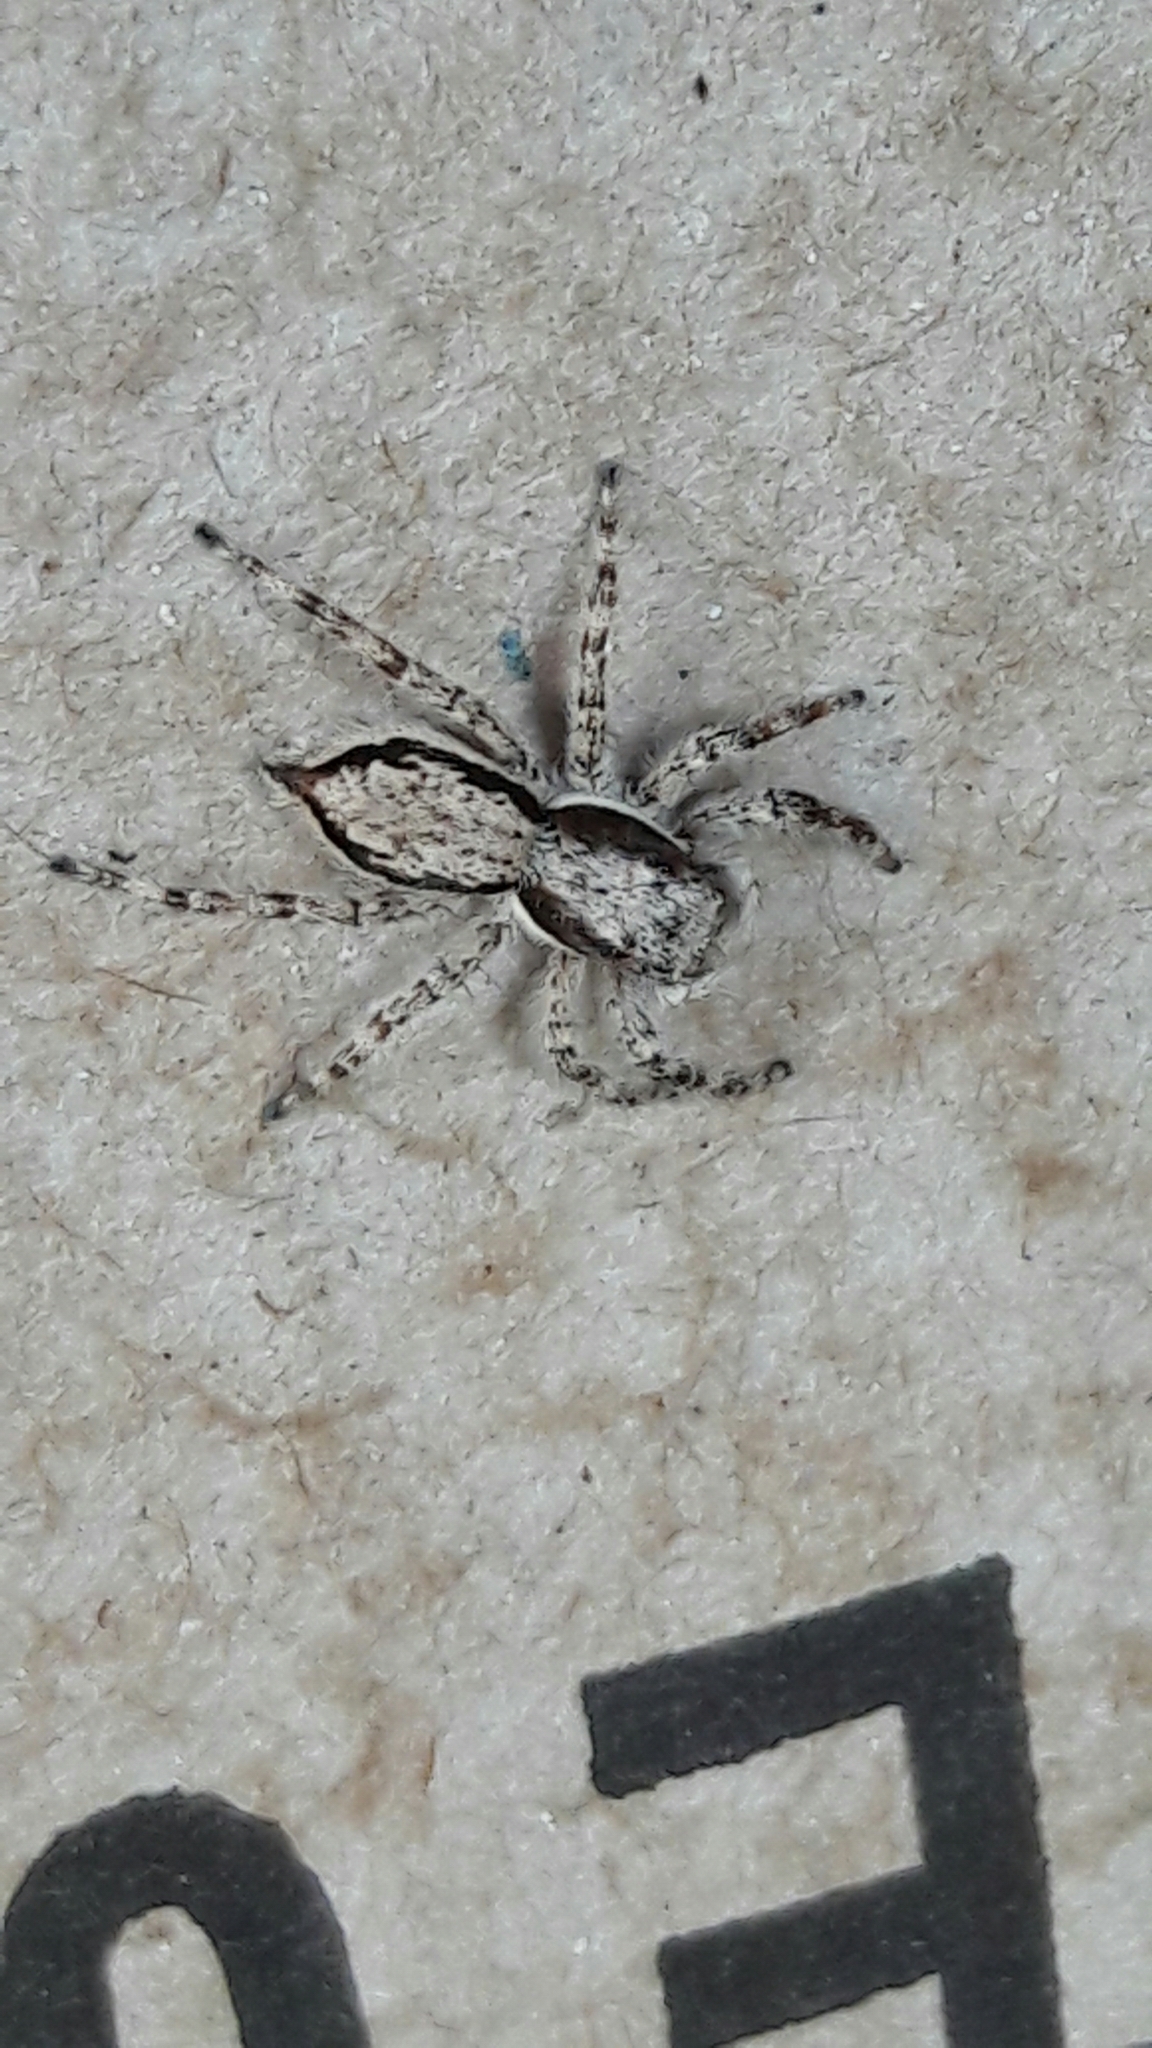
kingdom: Animalia
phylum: Arthropoda
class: Arachnida
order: Araneae
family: Salticidae
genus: Menemerus
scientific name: Menemerus bivittatus
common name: Gray wall jumper
